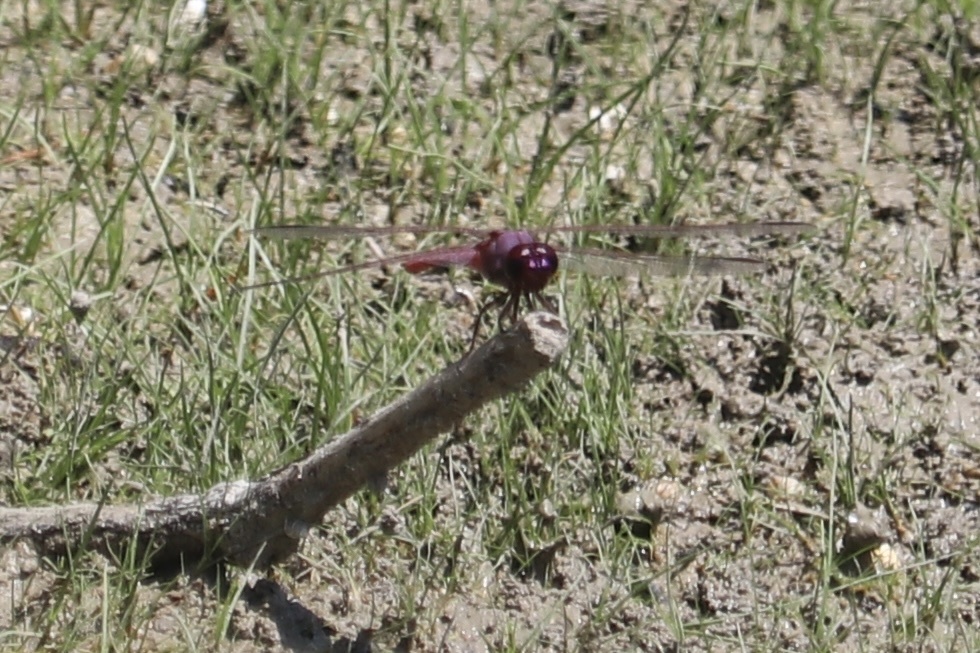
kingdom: Animalia
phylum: Arthropoda
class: Insecta
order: Odonata
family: Libellulidae
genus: Orthemis
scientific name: Orthemis ferruginea
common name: Roseate skimmer
